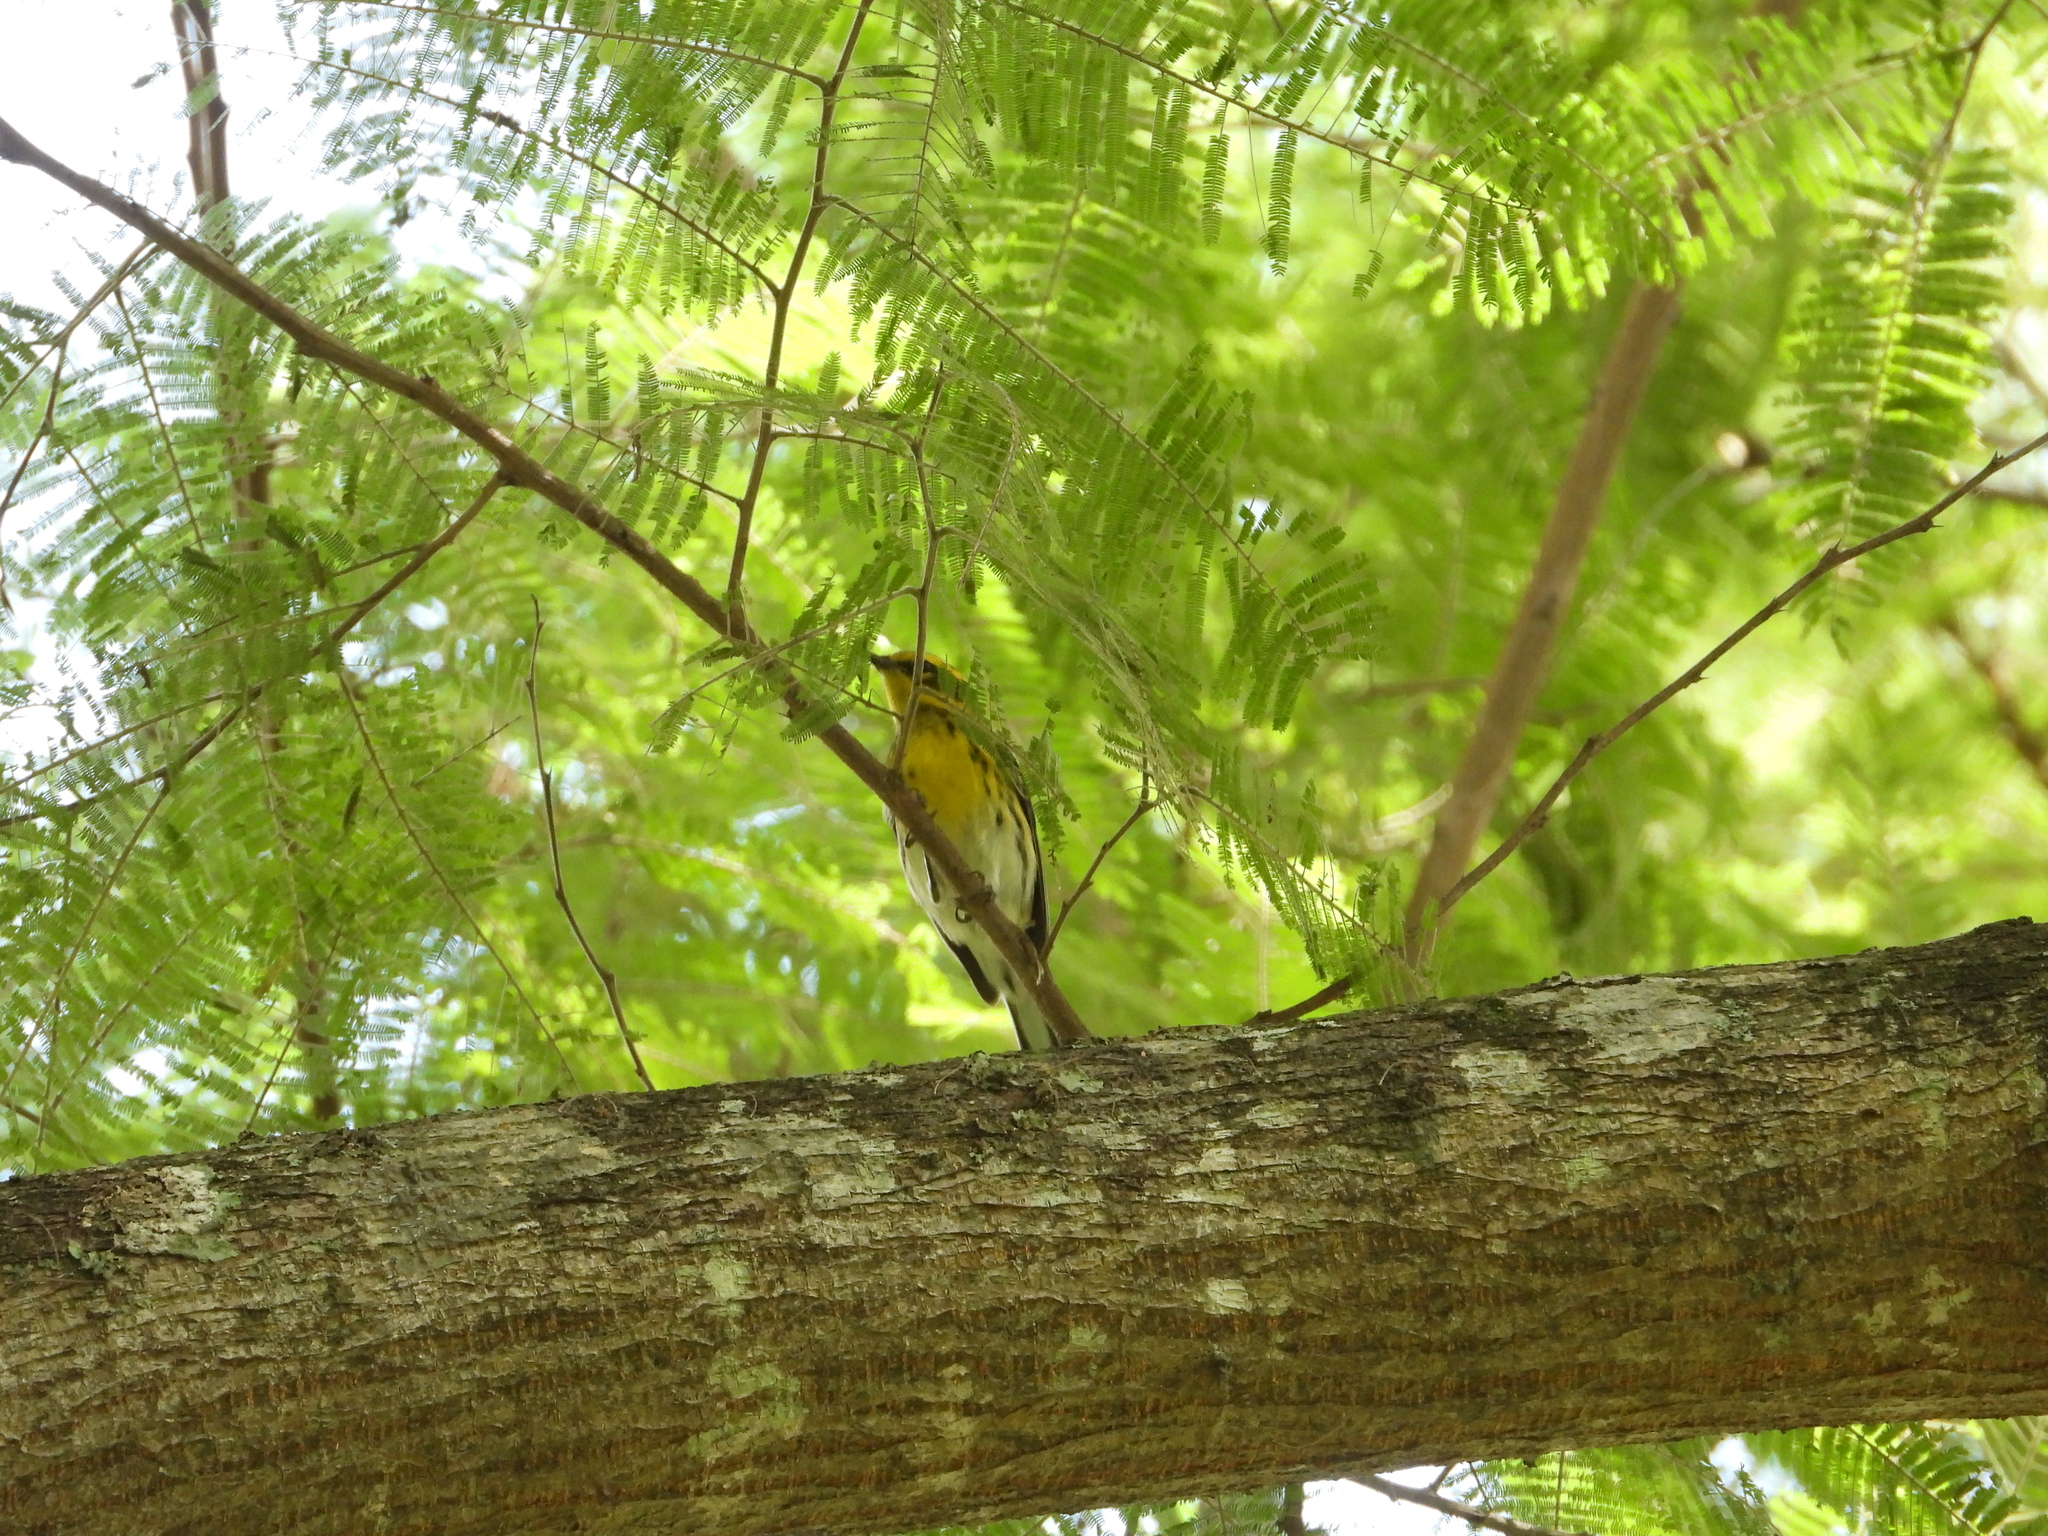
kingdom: Animalia
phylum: Chordata
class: Aves
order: Passeriformes
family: Parulidae
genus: Setophaga
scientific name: Setophaga townsendi
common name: Townsend's warbler
